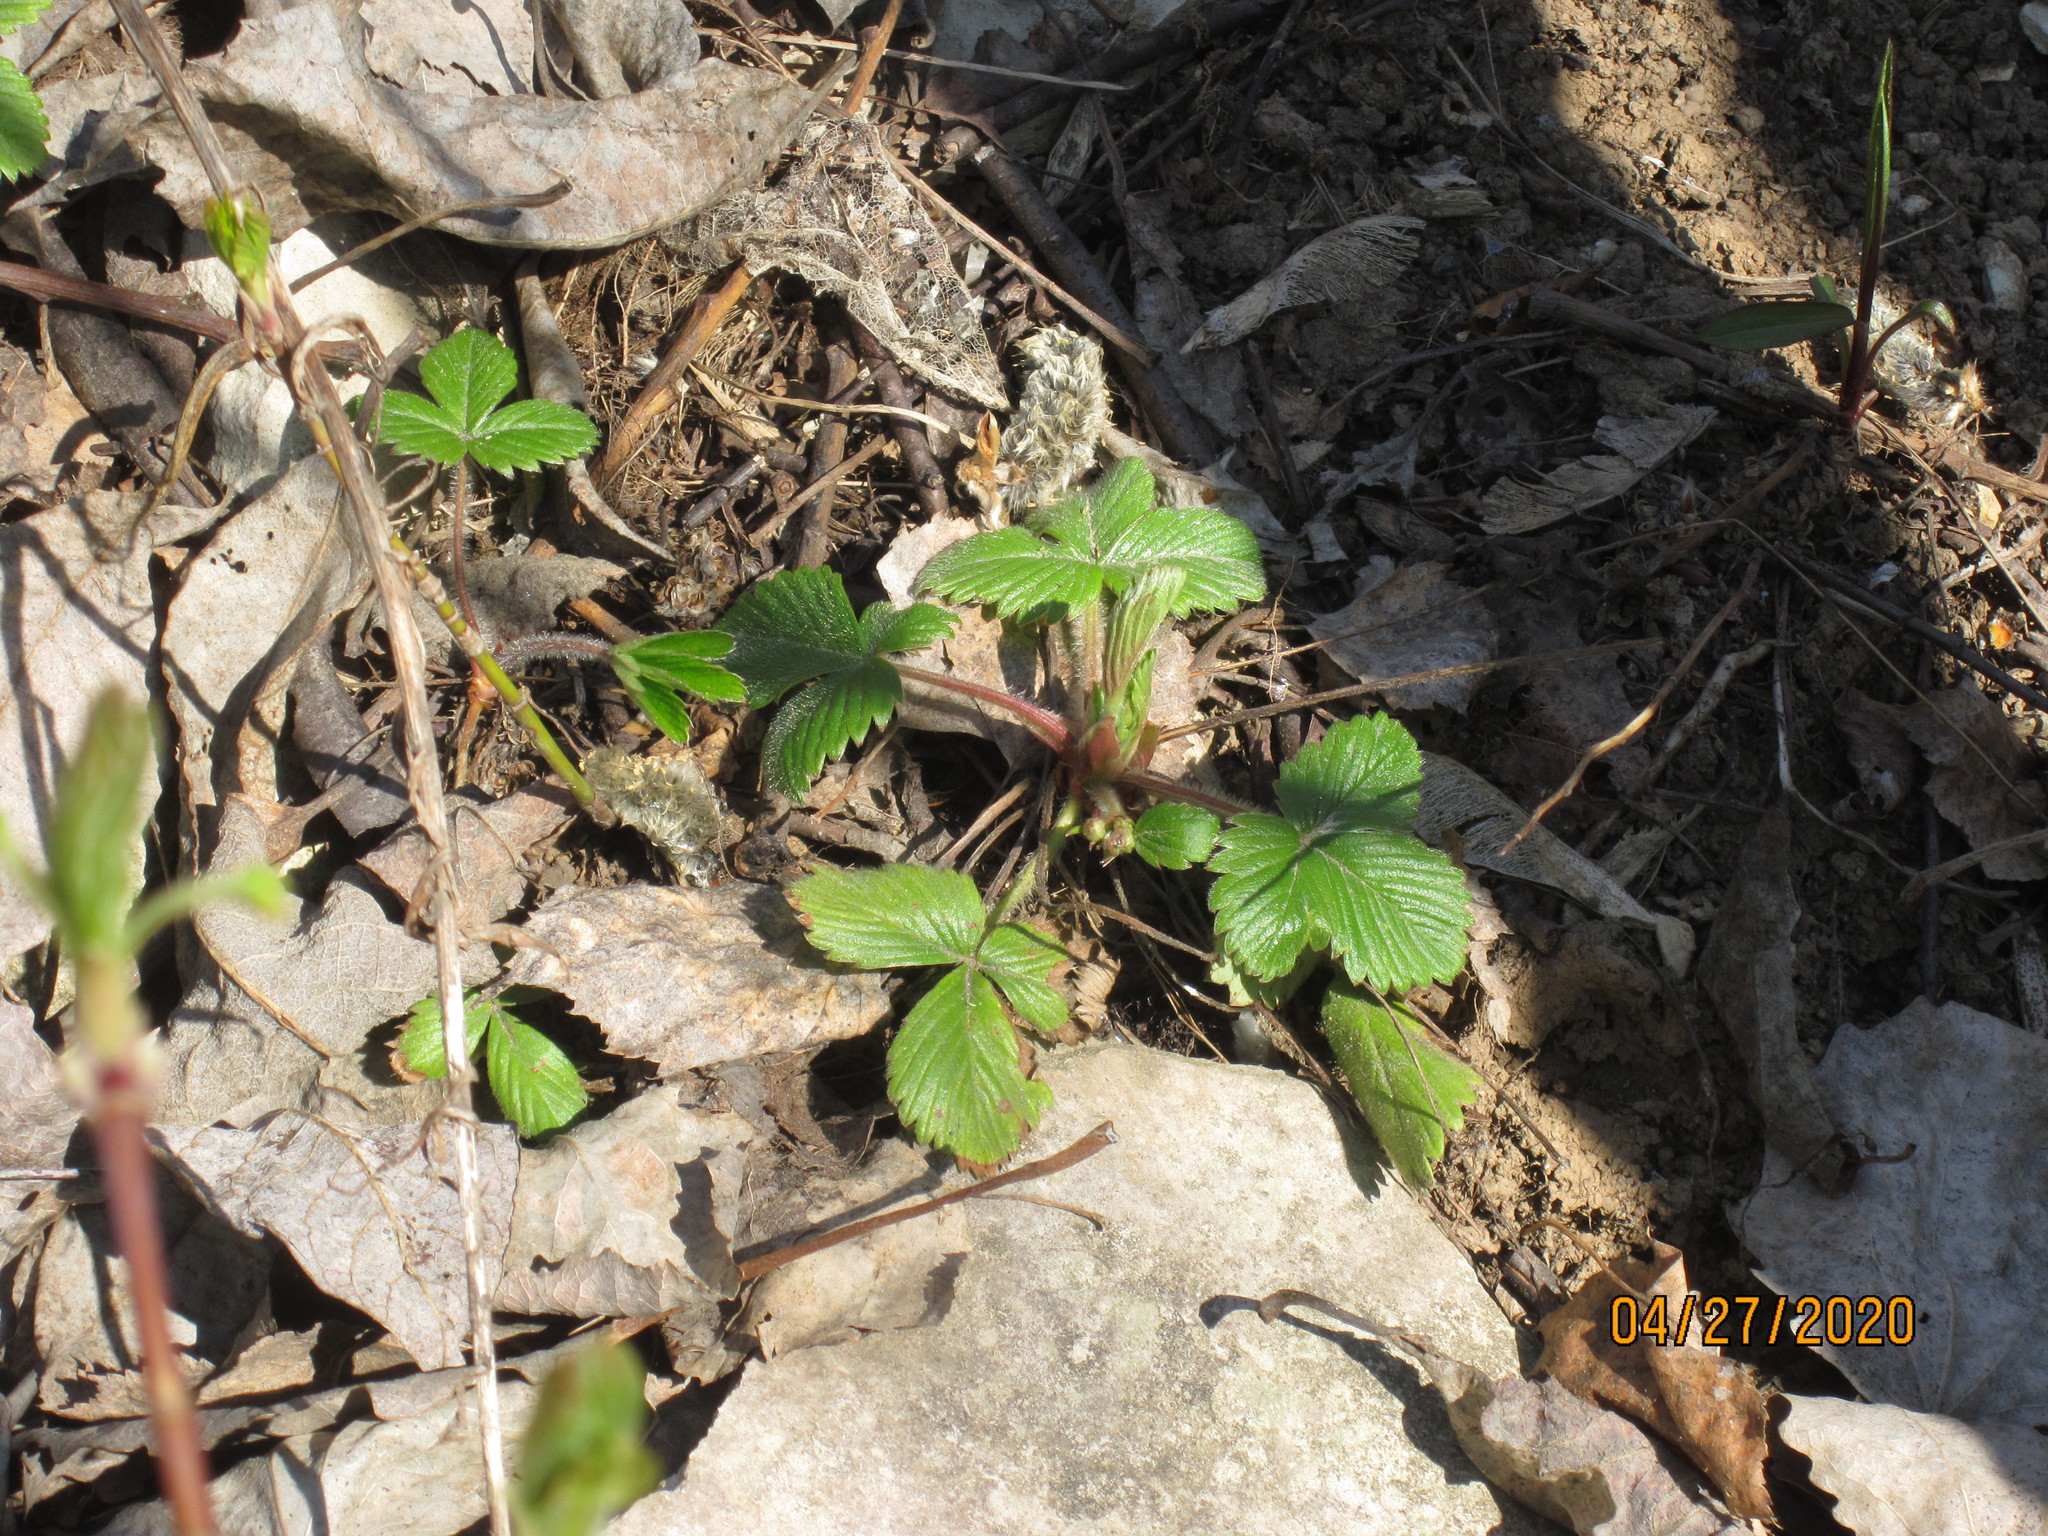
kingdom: Plantae
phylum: Tracheophyta
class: Magnoliopsida
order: Rosales
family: Rosaceae
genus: Fragaria
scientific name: Fragaria vesca
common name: Wild strawberry
